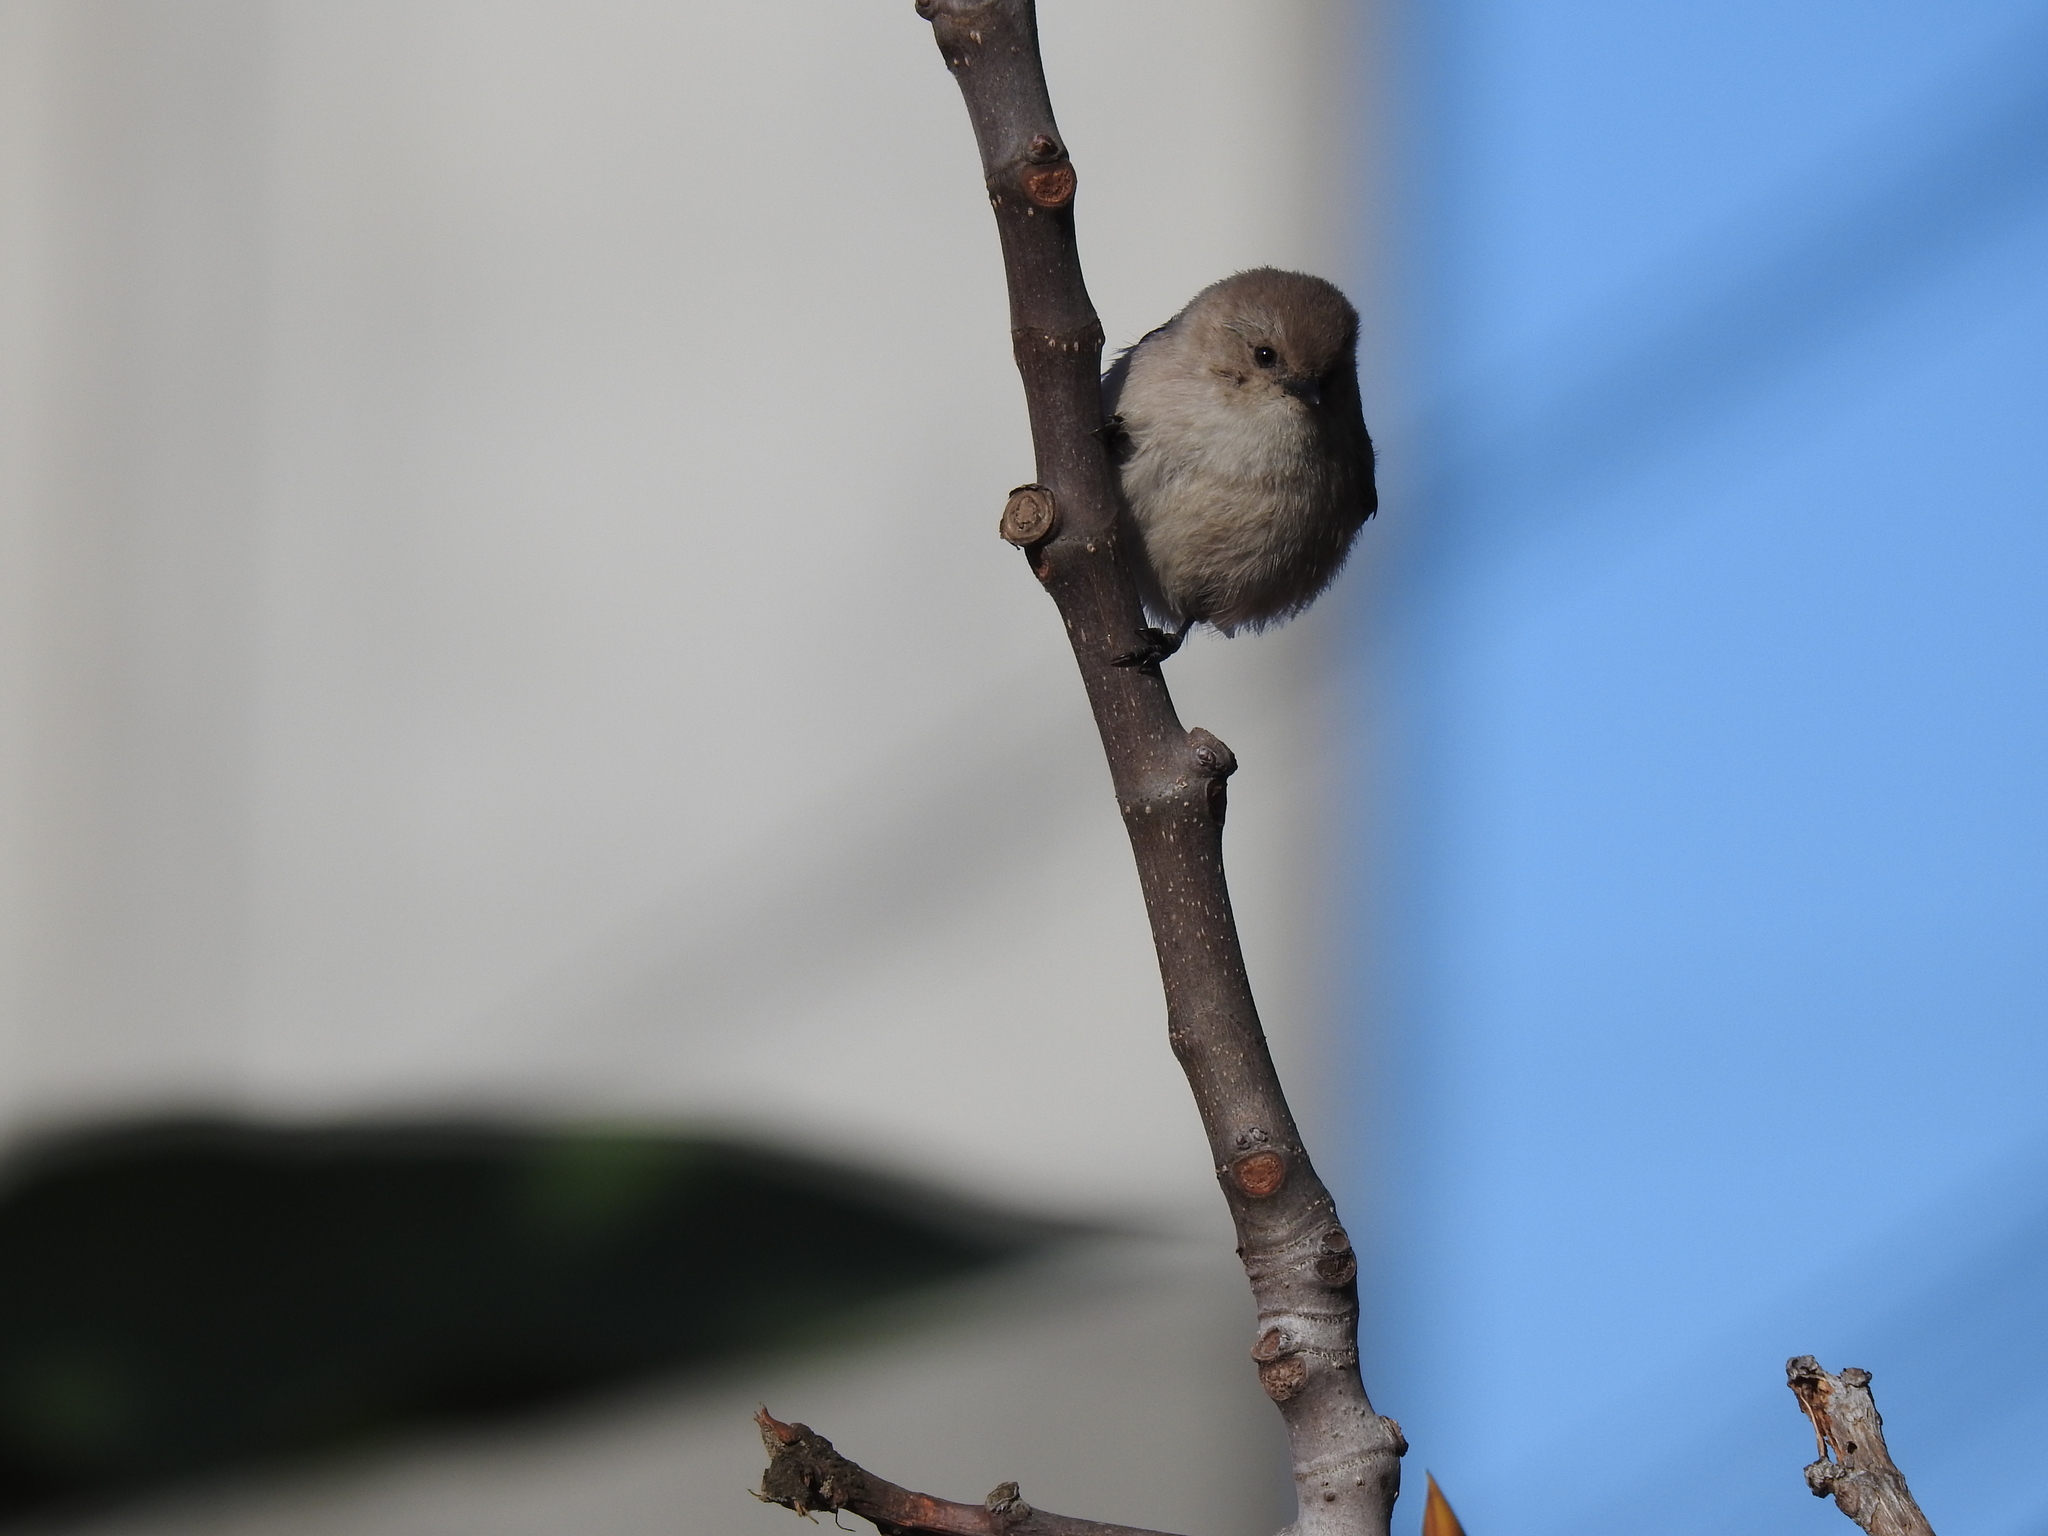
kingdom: Animalia
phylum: Chordata
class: Aves
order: Passeriformes
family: Aegithalidae
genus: Psaltriparus
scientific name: Psaltriparus minimus
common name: American bushtit
